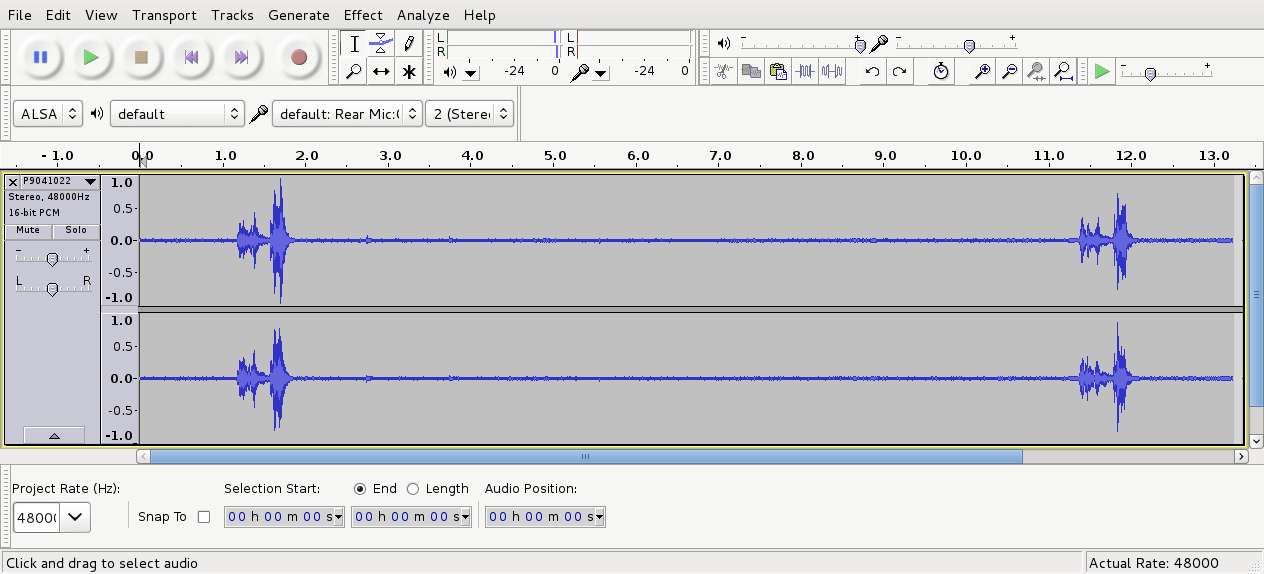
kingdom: Animalia
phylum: Chordata
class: Aves
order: Passeriformes
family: Notiomystidae
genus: Notiomystis
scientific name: Notiomystis cincta
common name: Stitchbird
